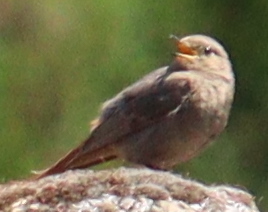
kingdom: Animalia
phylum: Chordata
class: Aves
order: Passeriformes
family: Muscicapidae
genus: Phoenicurus
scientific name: Phoenicurus ochruros
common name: Black redstart
